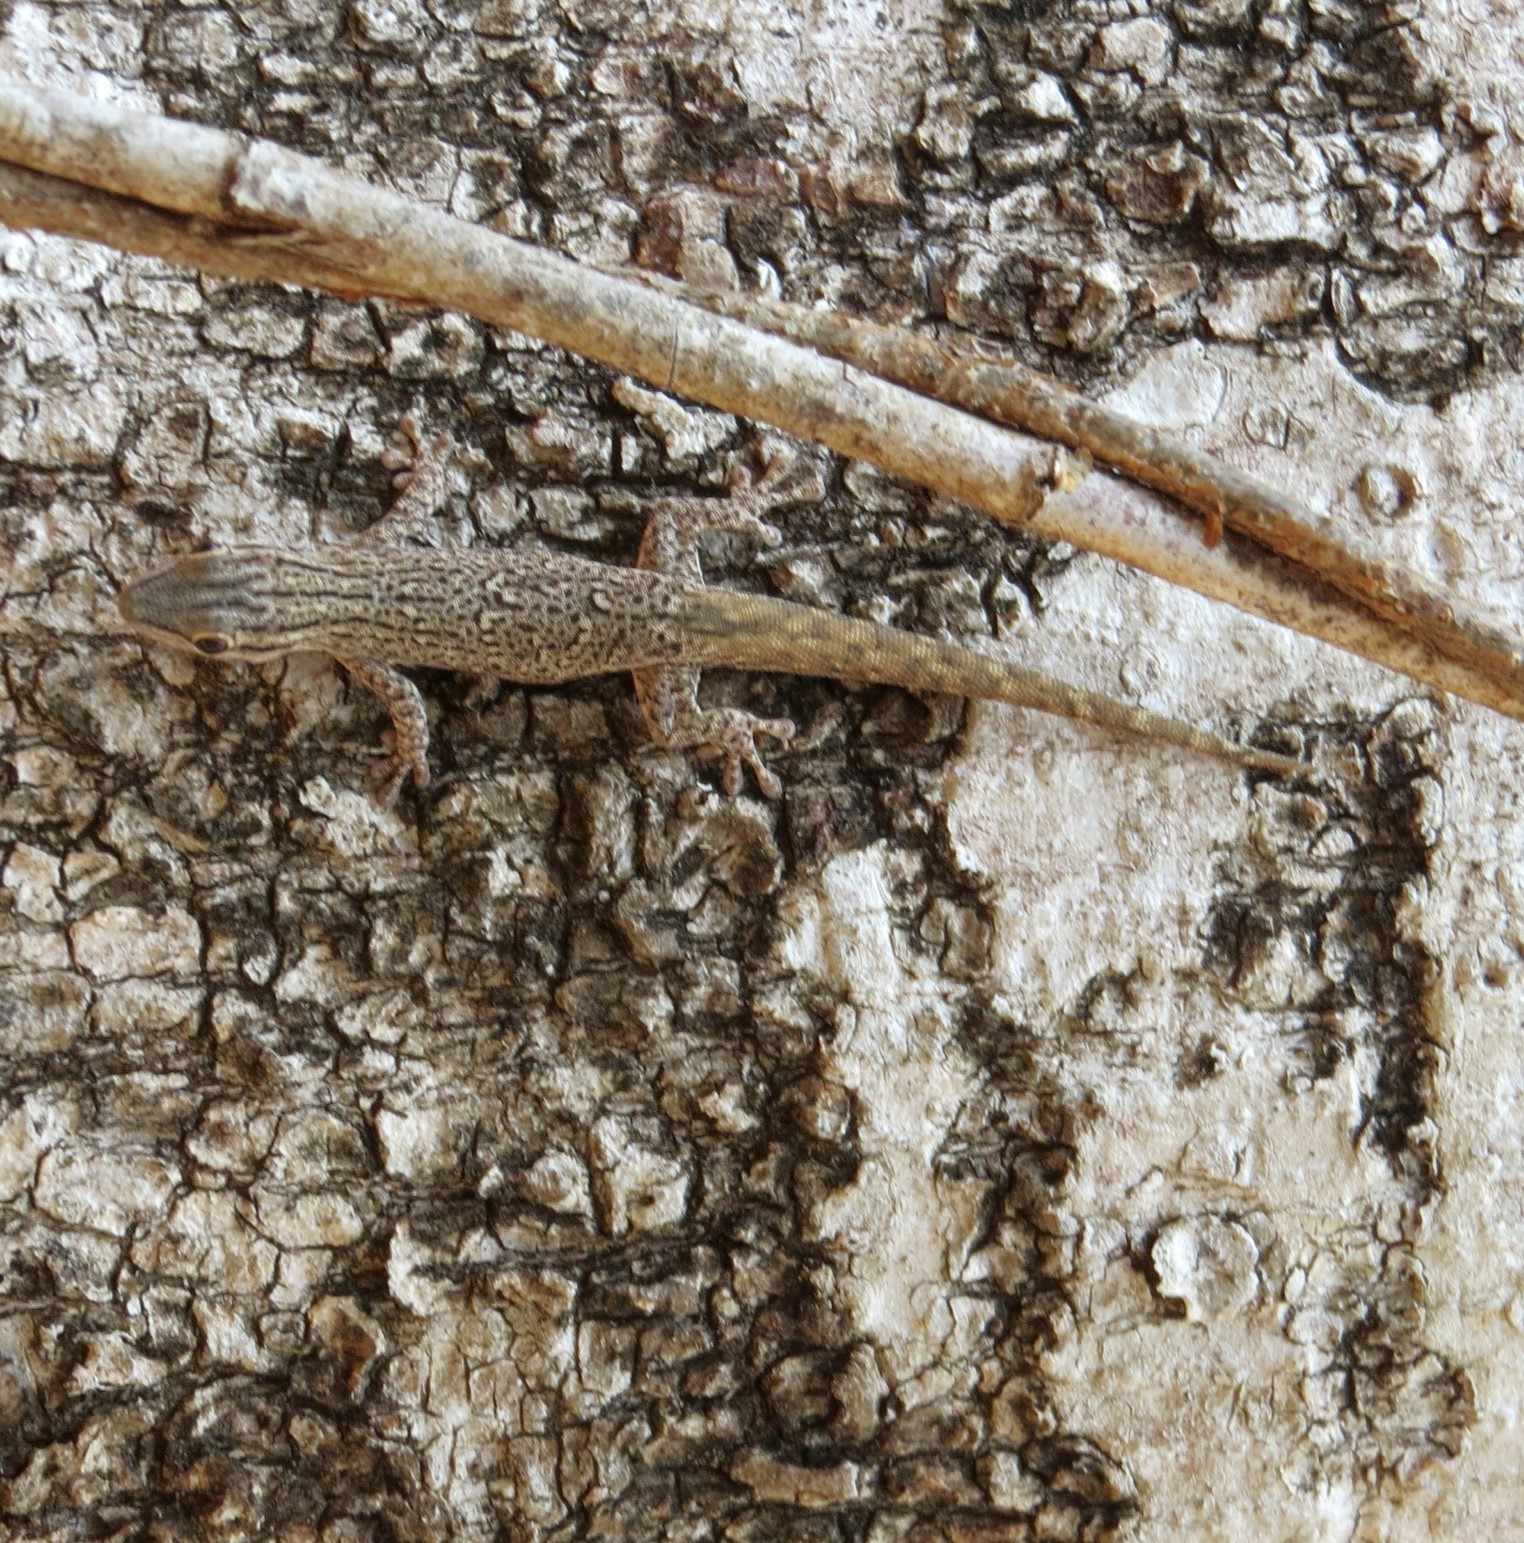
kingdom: Animalia
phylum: Chordata
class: Squamata
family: Gekkonidae
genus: Phelsuma
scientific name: Phelsuma mutabilis
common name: Thick tail gecko
